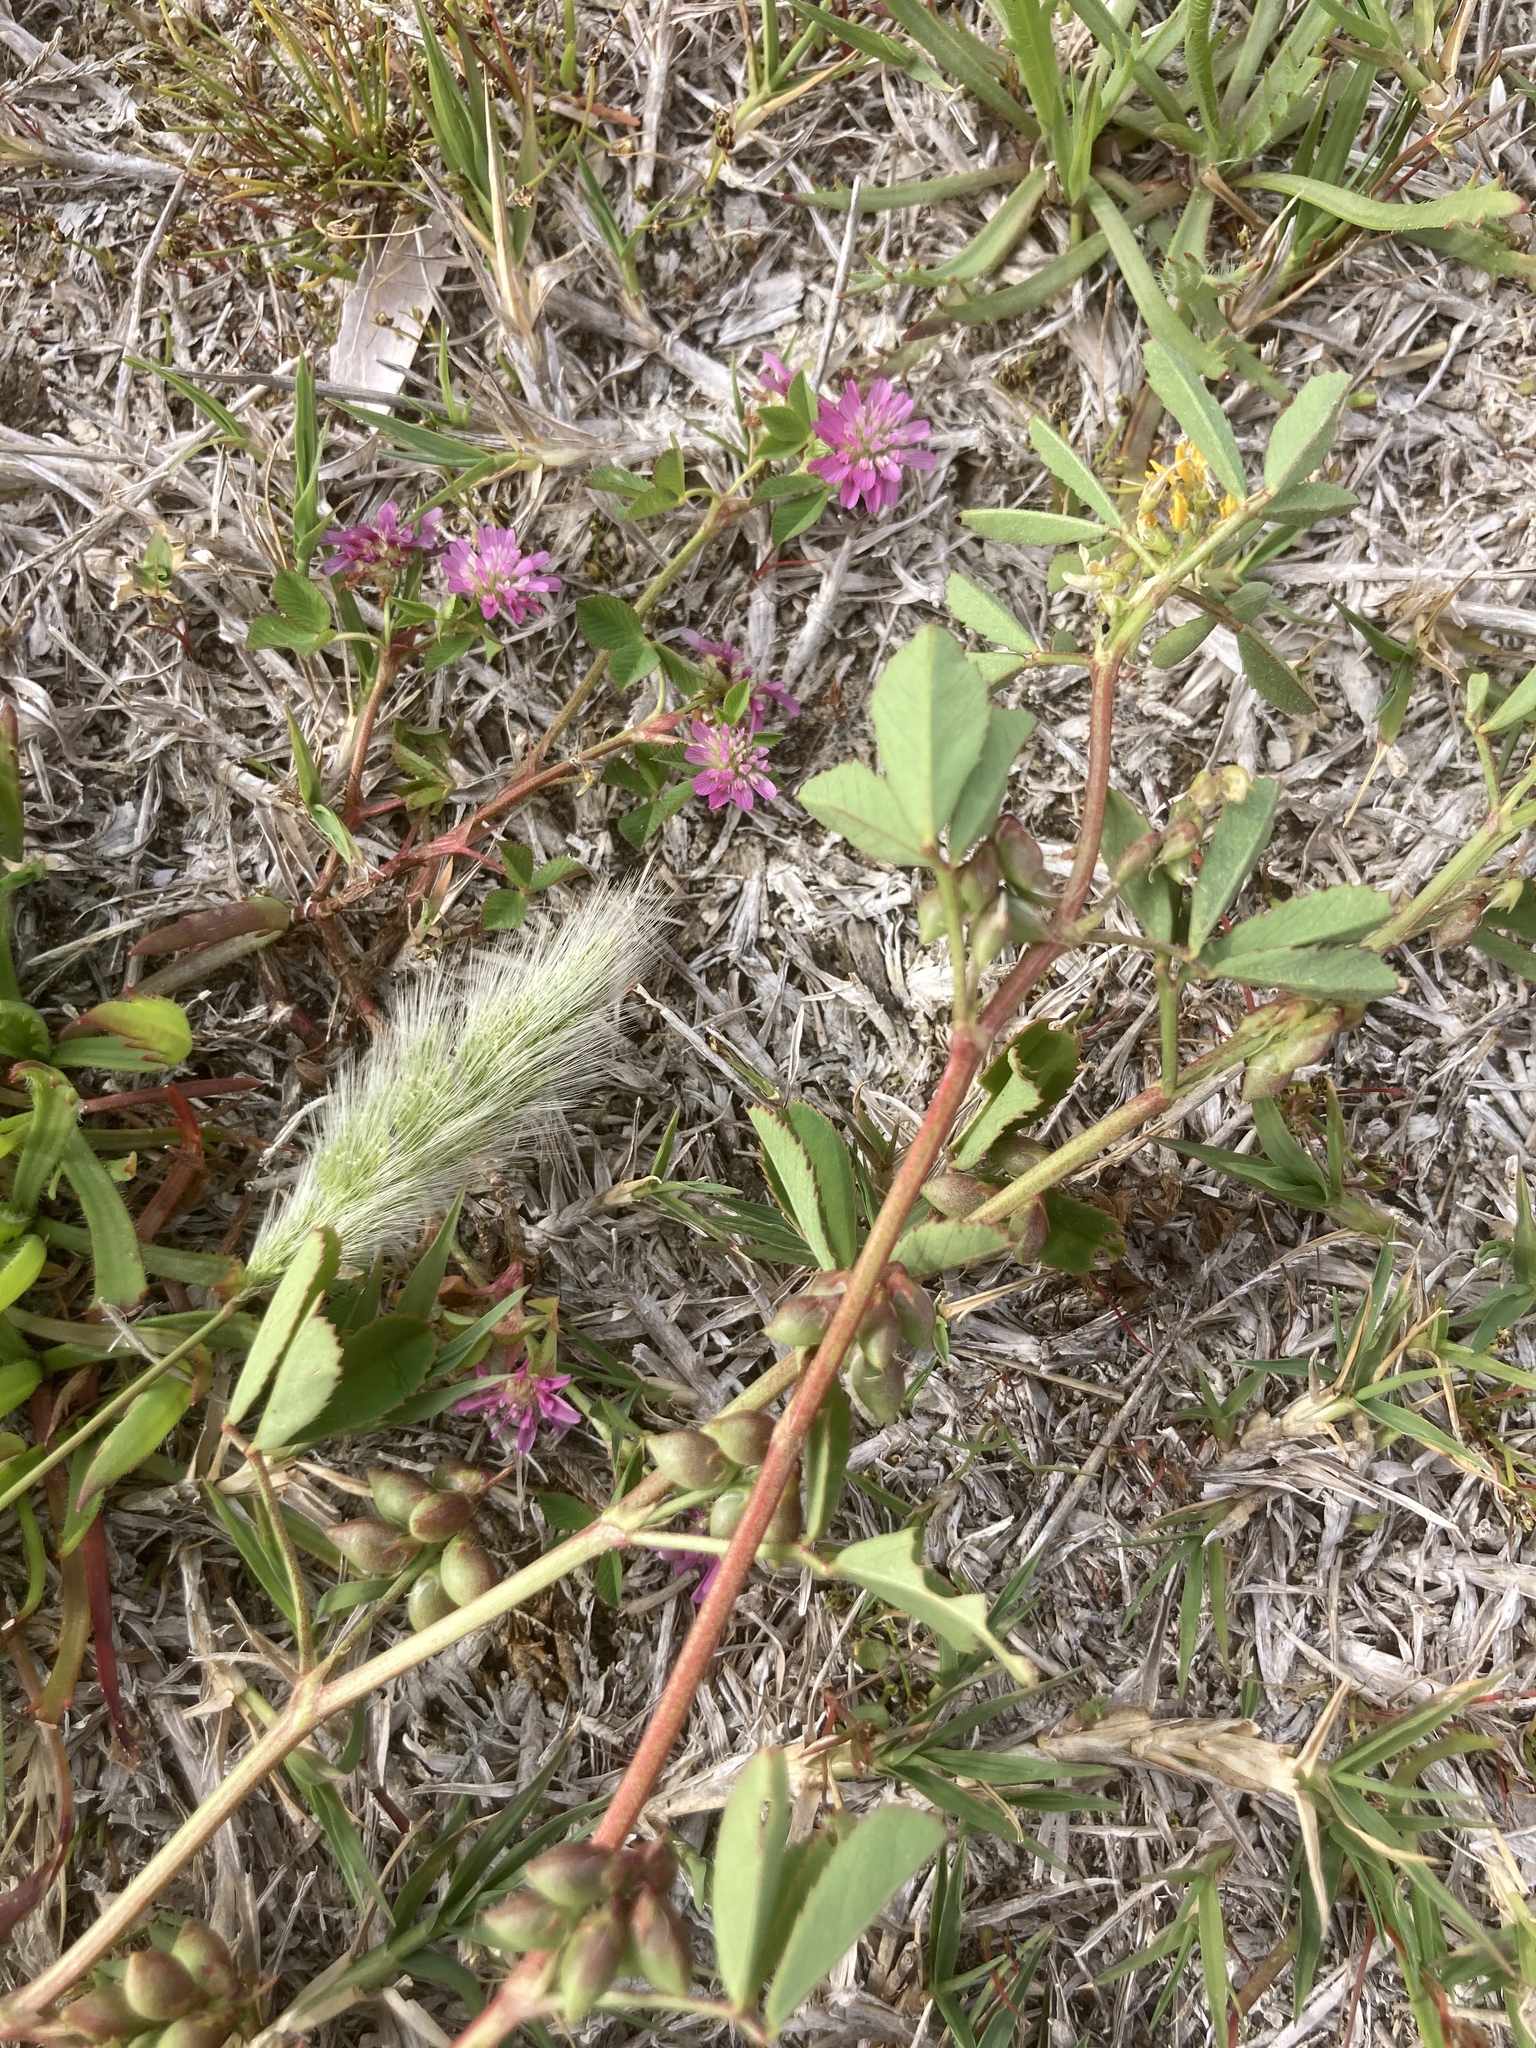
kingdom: Plantae
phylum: Tracheophyta
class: Magnoliopsida
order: Fabales
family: Fabaceae
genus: Trifolium
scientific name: Trifolium resupinatum
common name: Reversed clover
